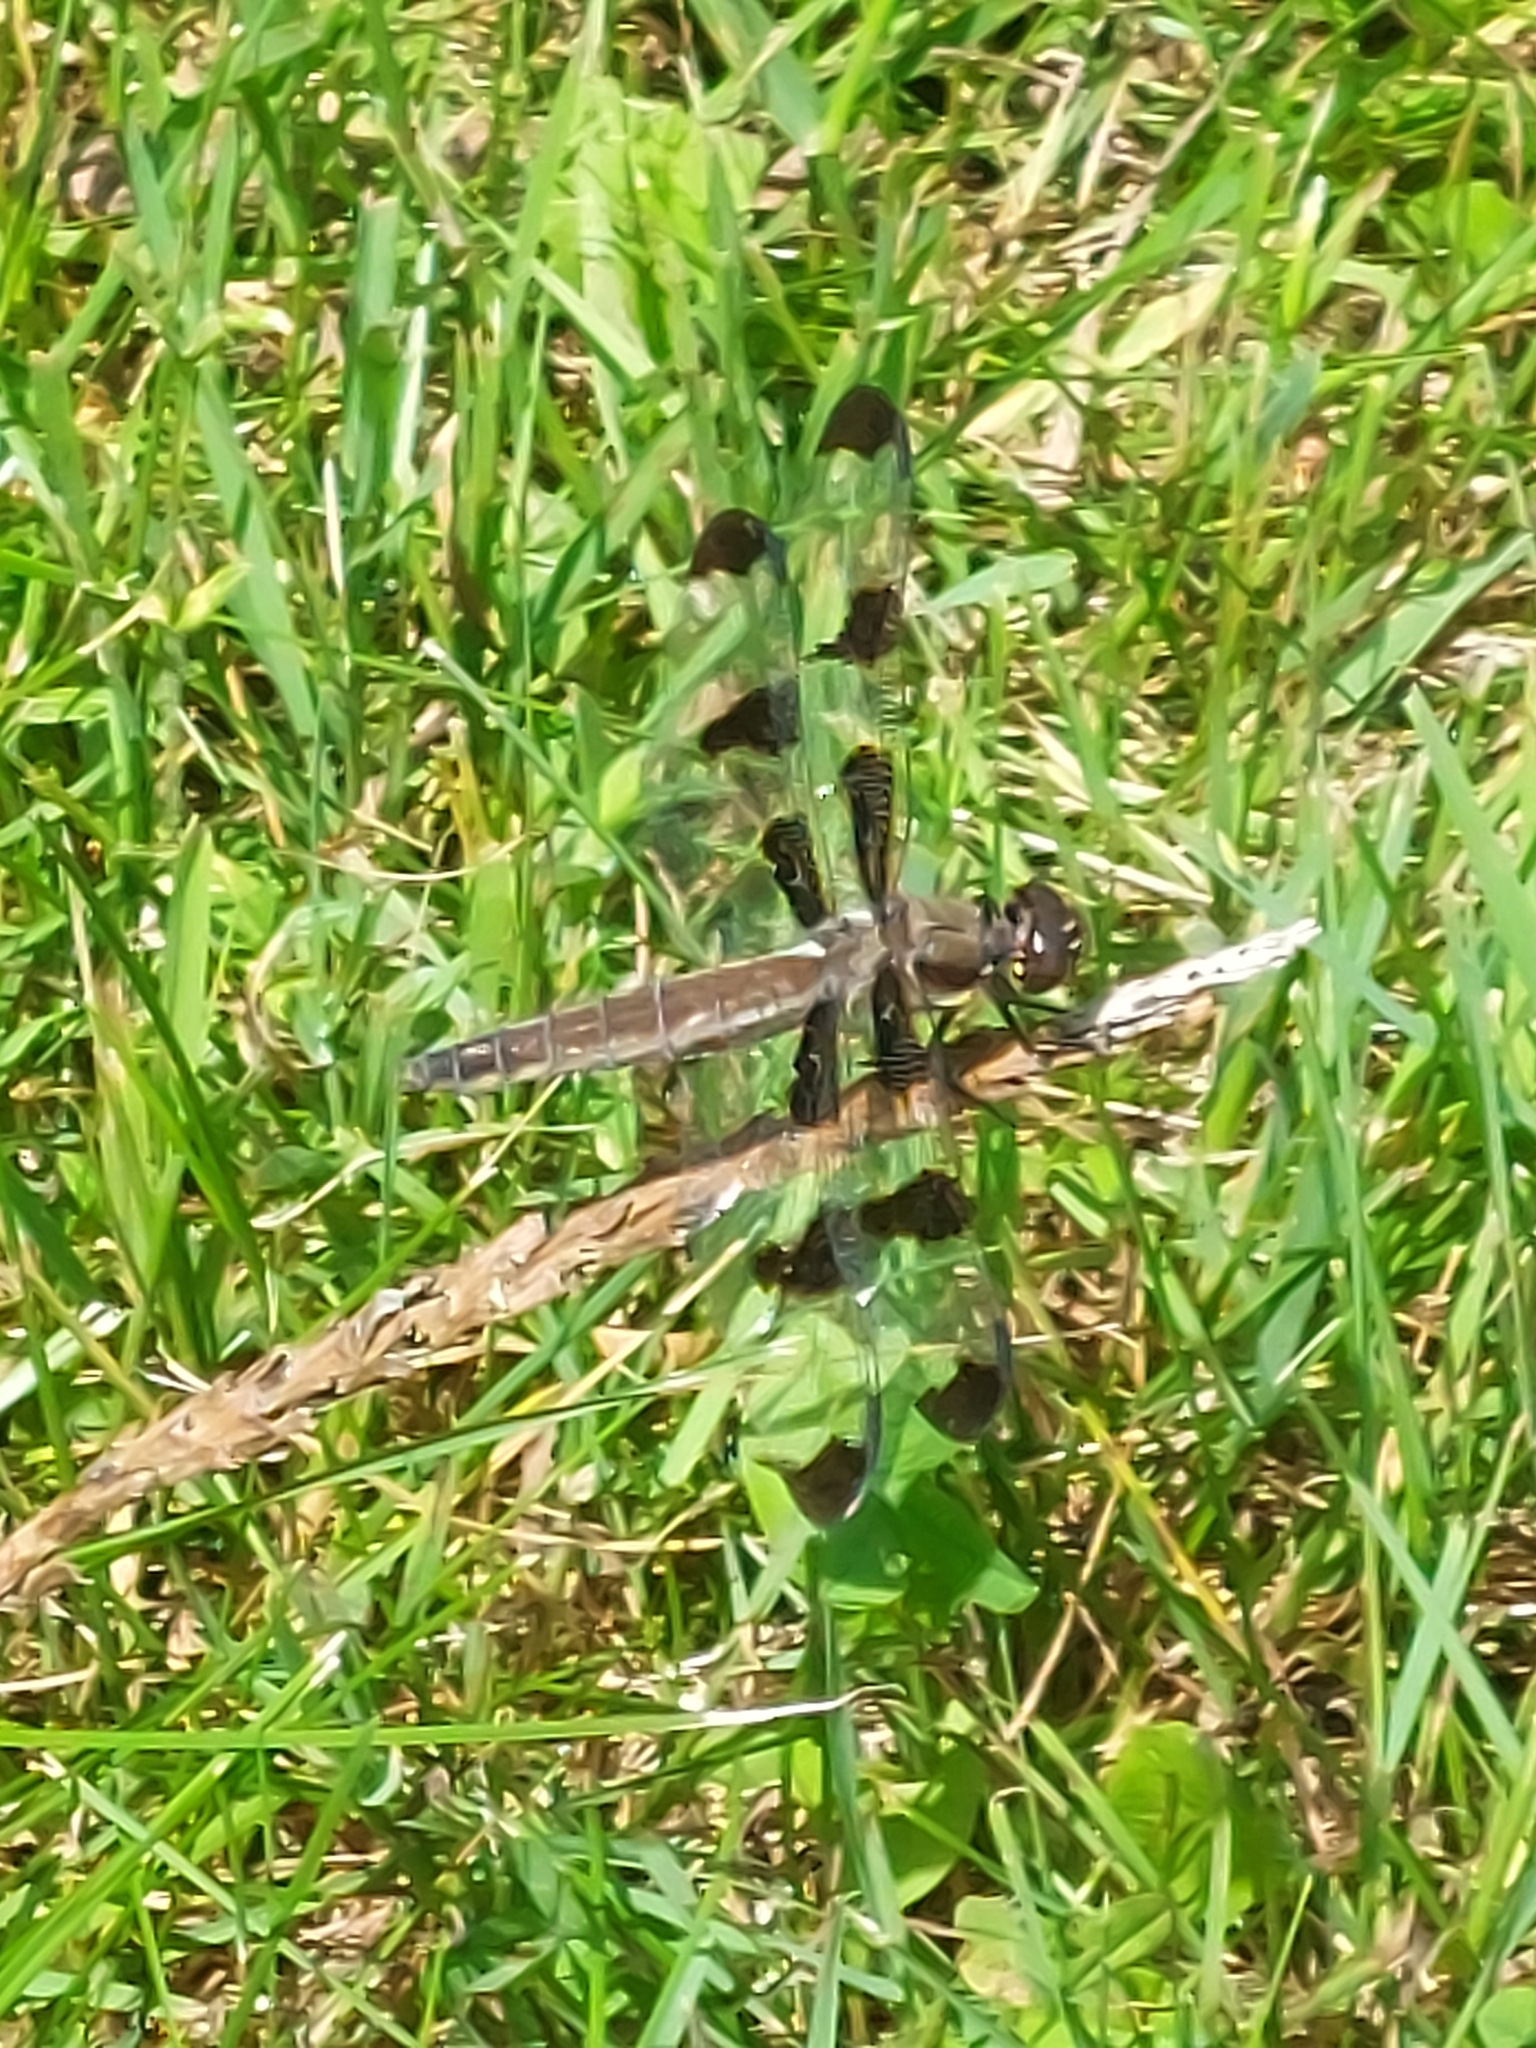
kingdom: Animalia
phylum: Arthropoda
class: Insecta
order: Odonata
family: Libellulidae
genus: Libellula
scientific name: Libellula pulchella
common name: Twelve-spotted skimmer
